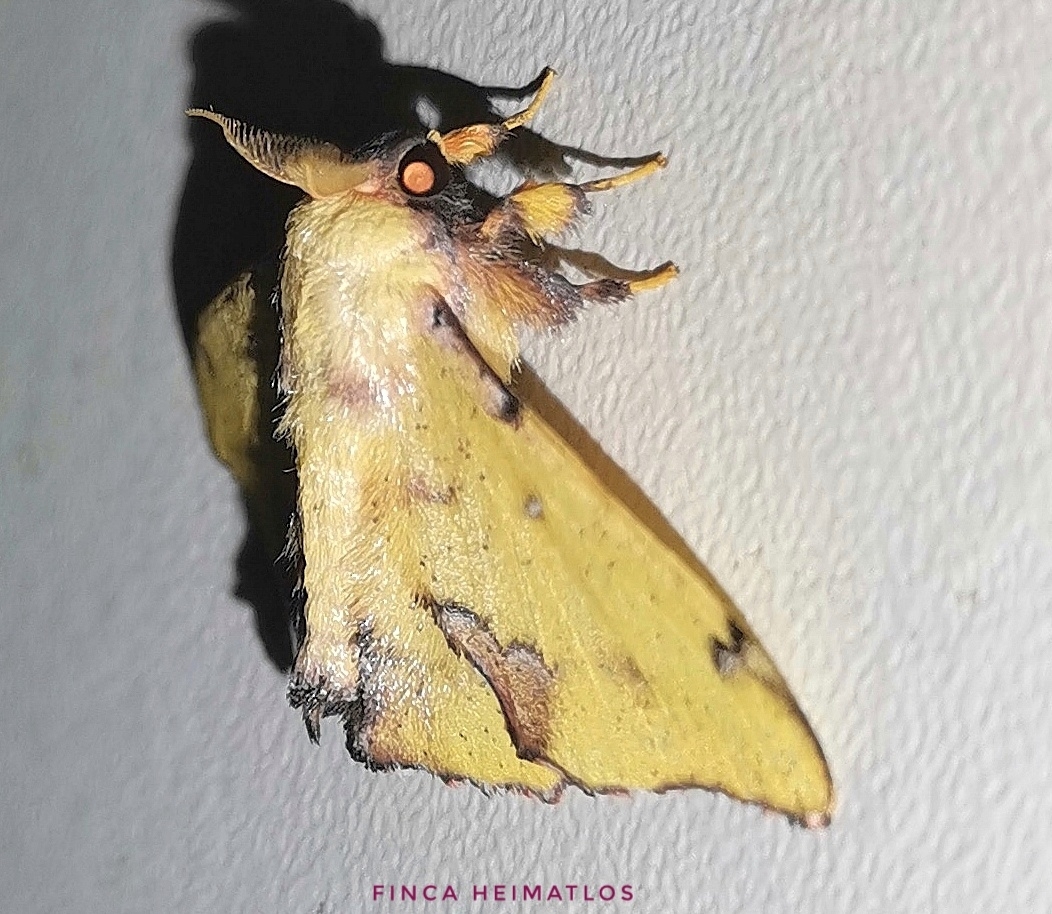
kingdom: Animalia
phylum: Arthropoda
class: Insecta
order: Lepidoptera
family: Mimallonidae
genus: Citralla
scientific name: Citralla
